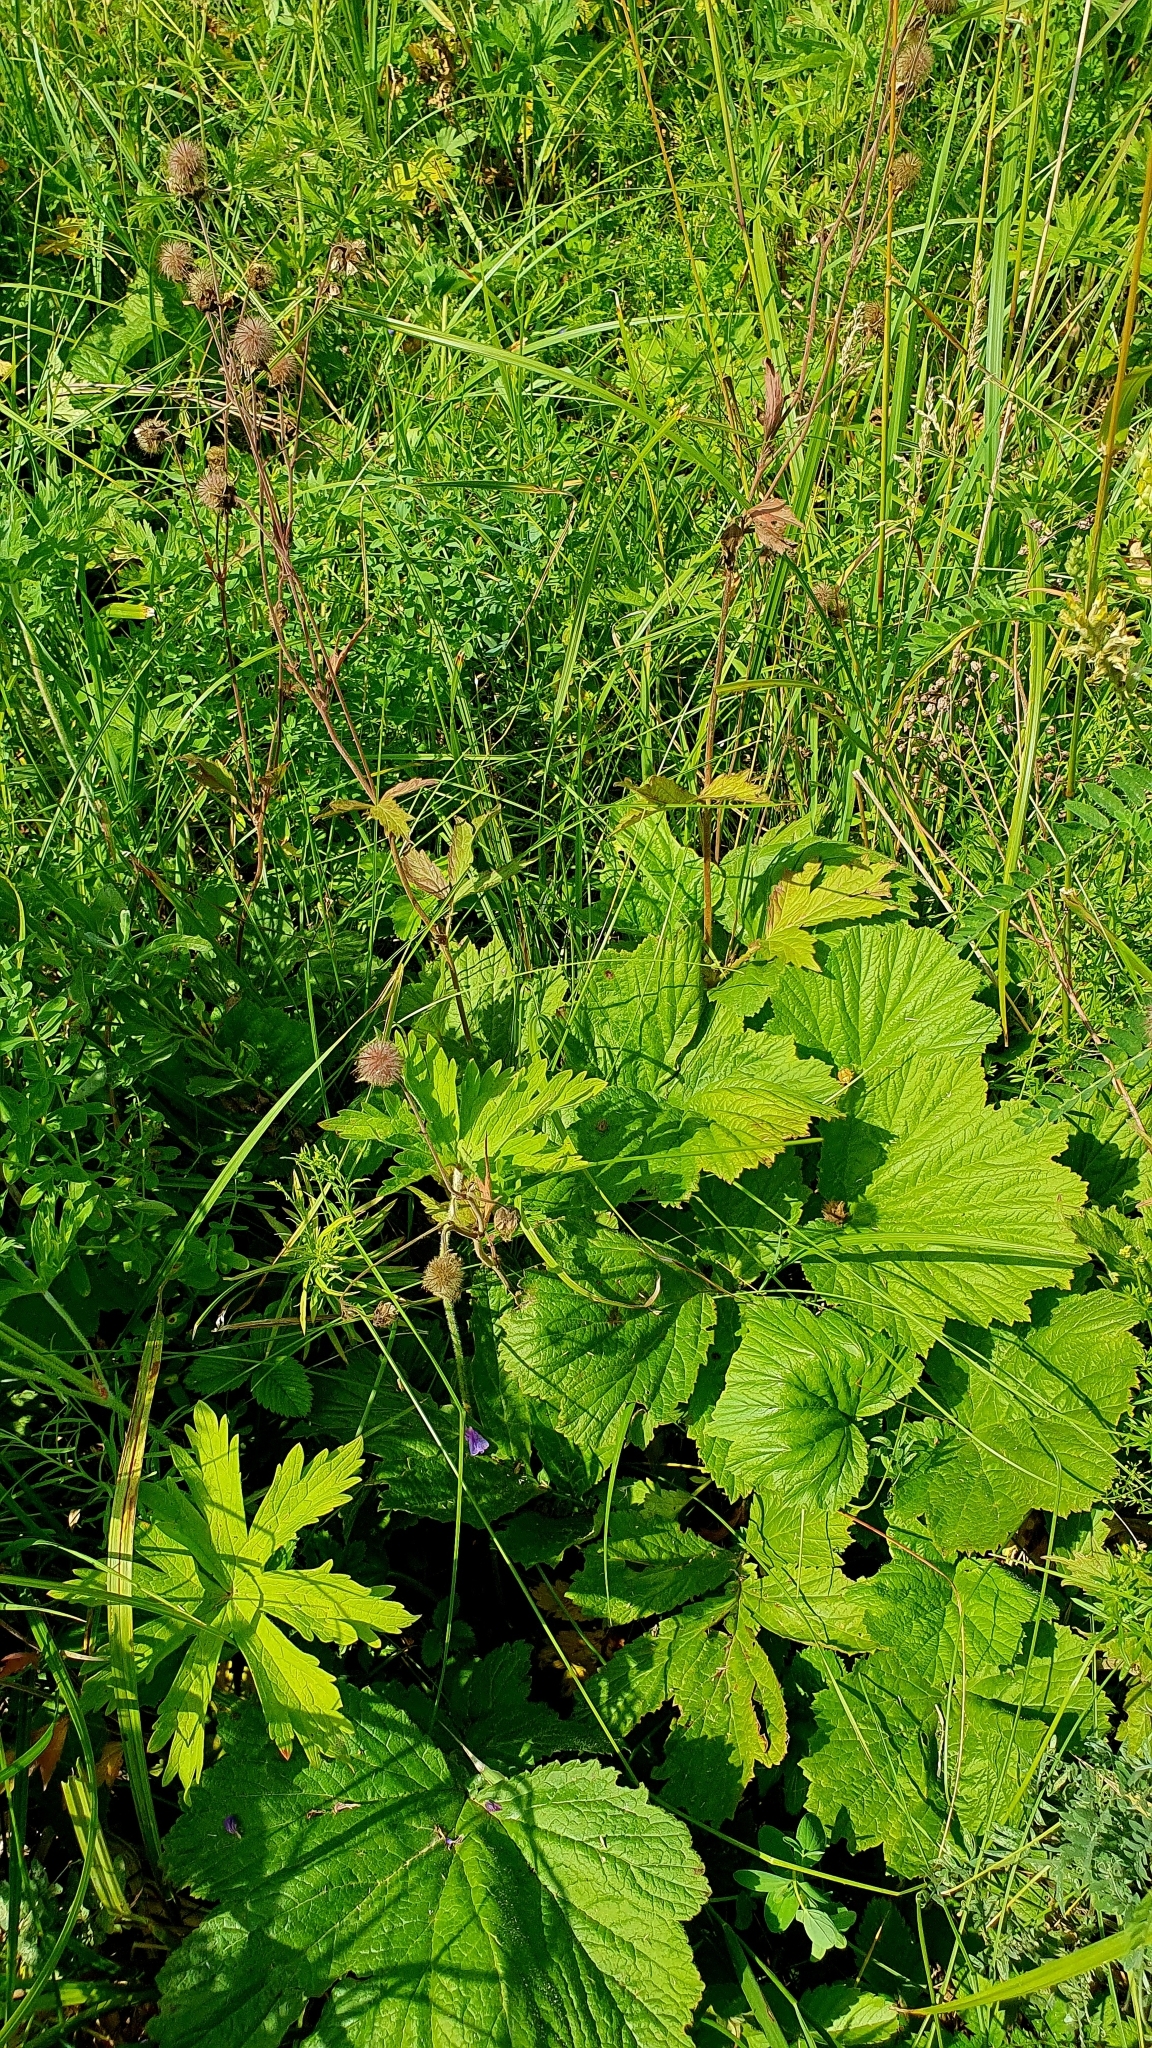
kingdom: Plantae
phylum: Tracheophyta
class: Magnoliopsida
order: Rosales
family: Rosaceae
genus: Geum
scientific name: Geum rivale
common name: Water avens
